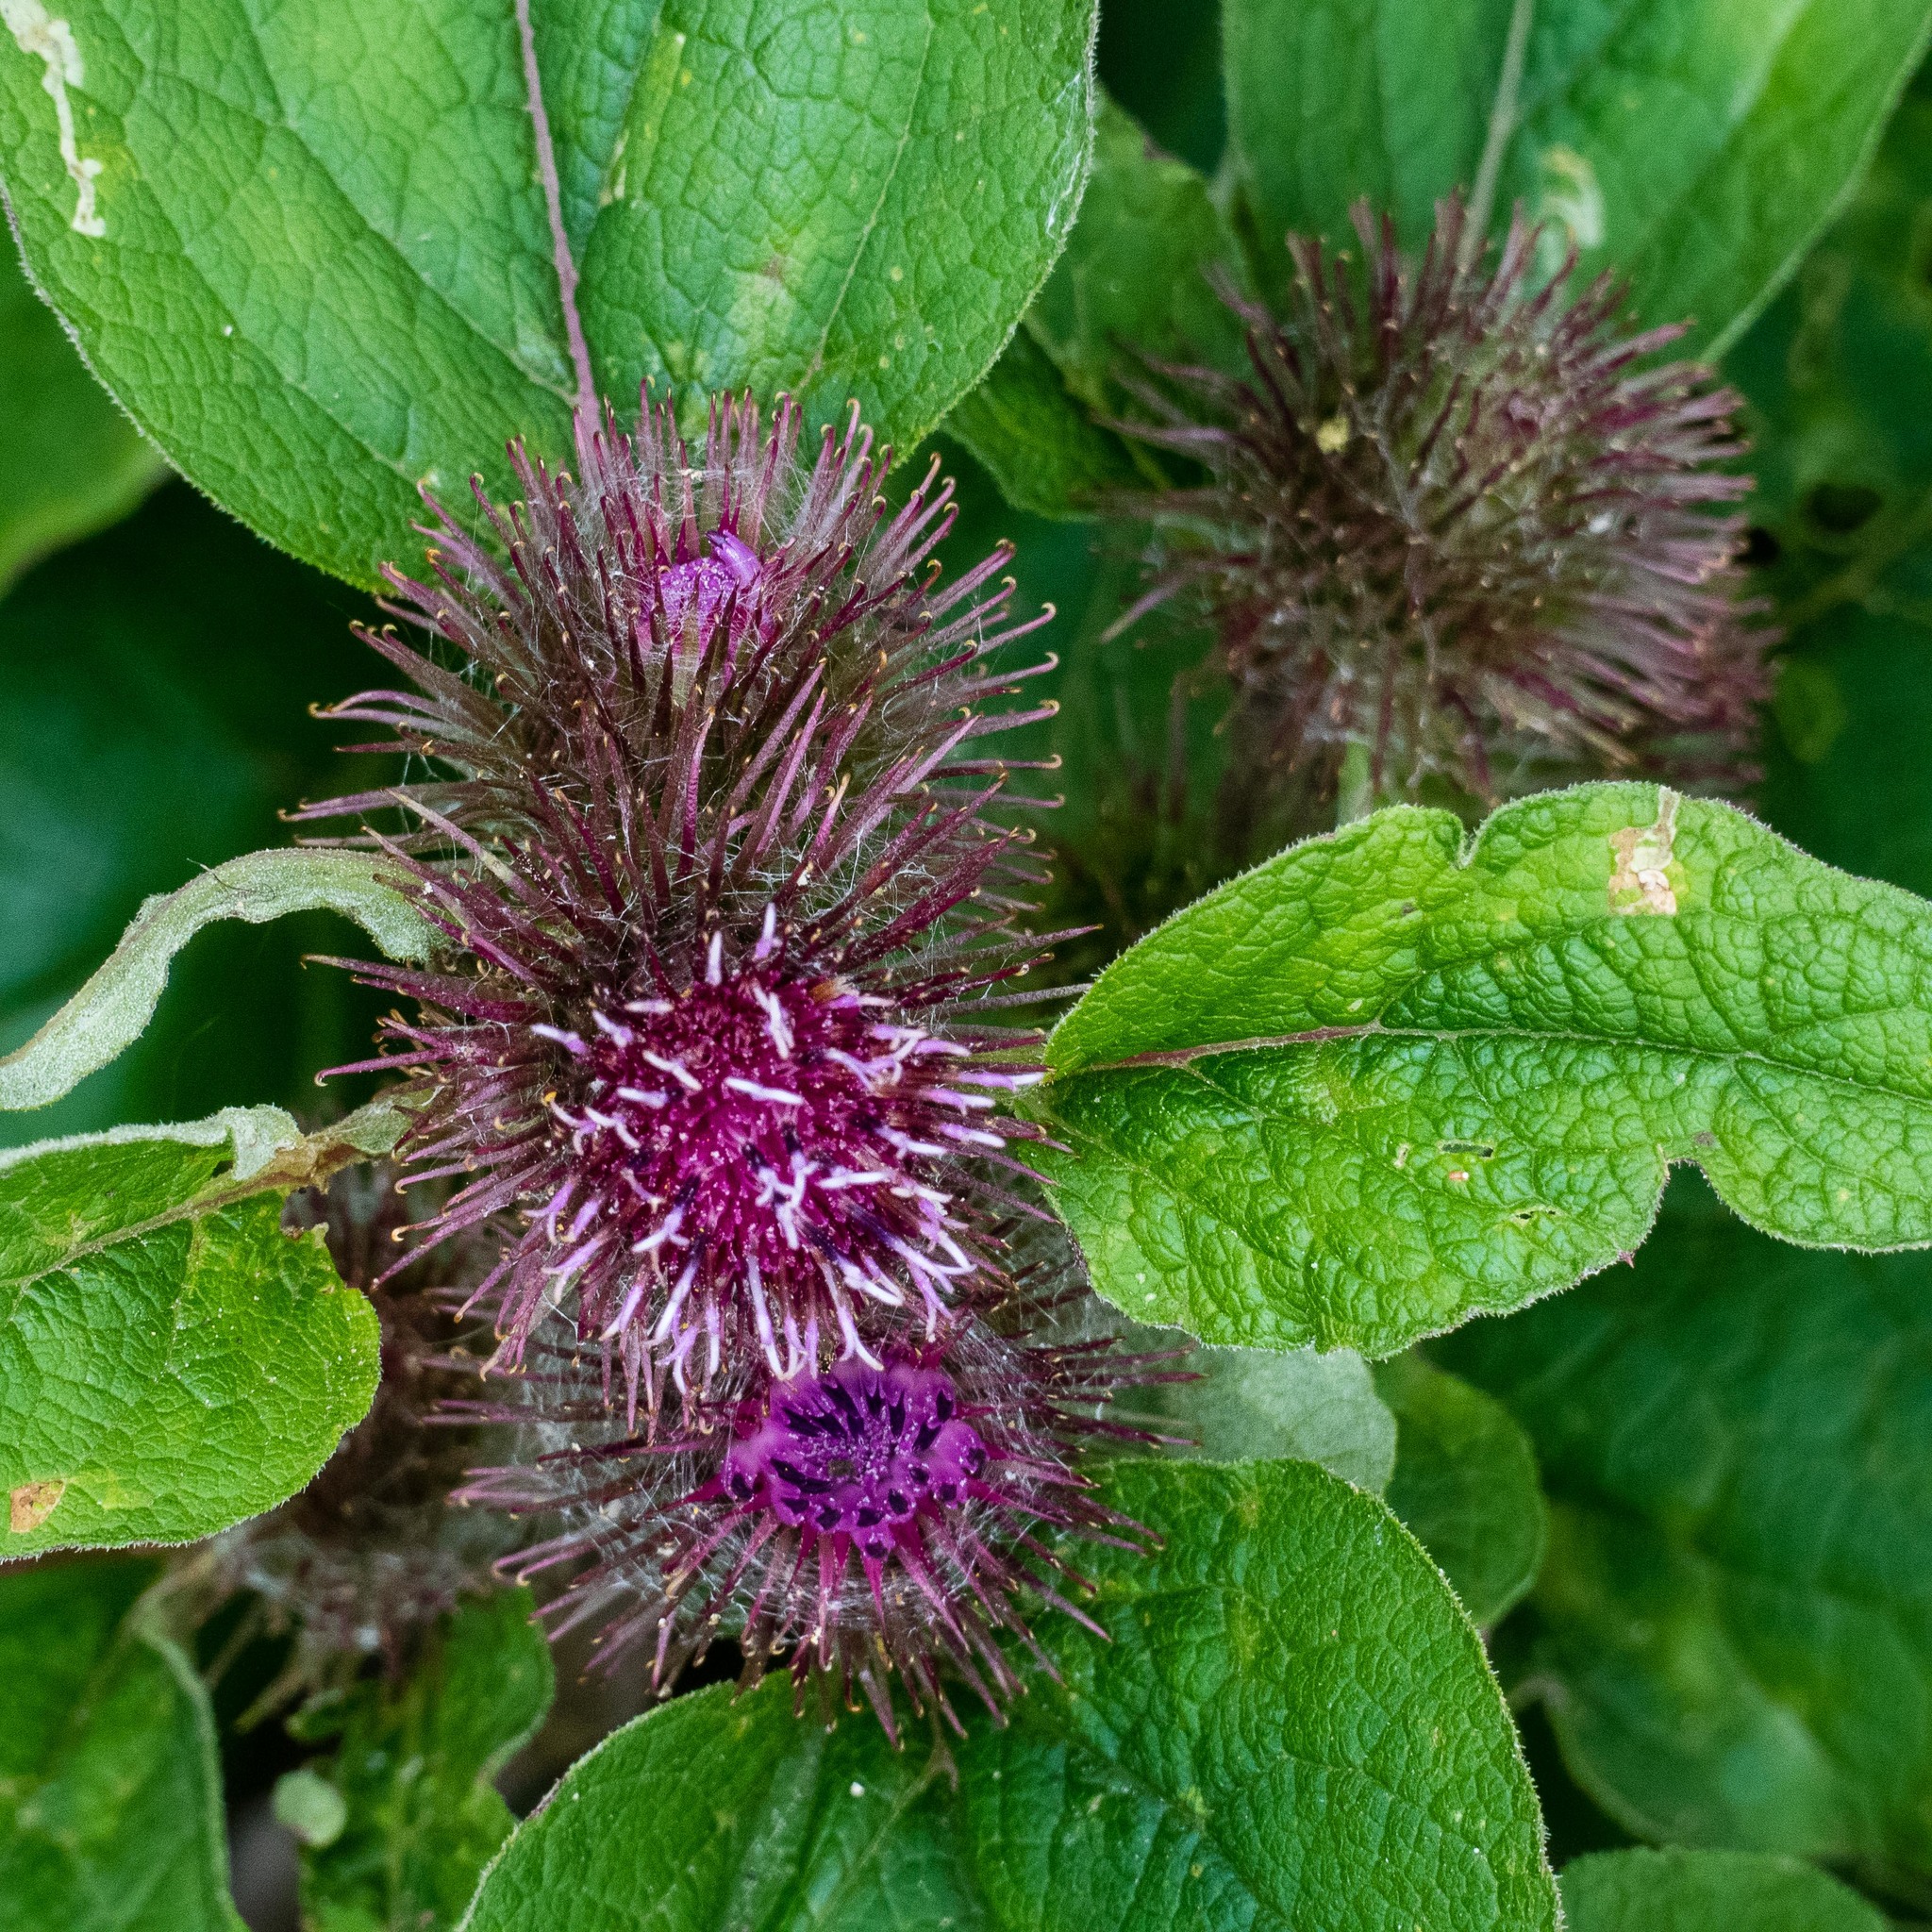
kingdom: Plantae
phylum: Tracheophyta
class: Magnoliopsida
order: Asterales
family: Asteraceae
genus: Arctium
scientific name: Arctium minus
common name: Lesser burdock
